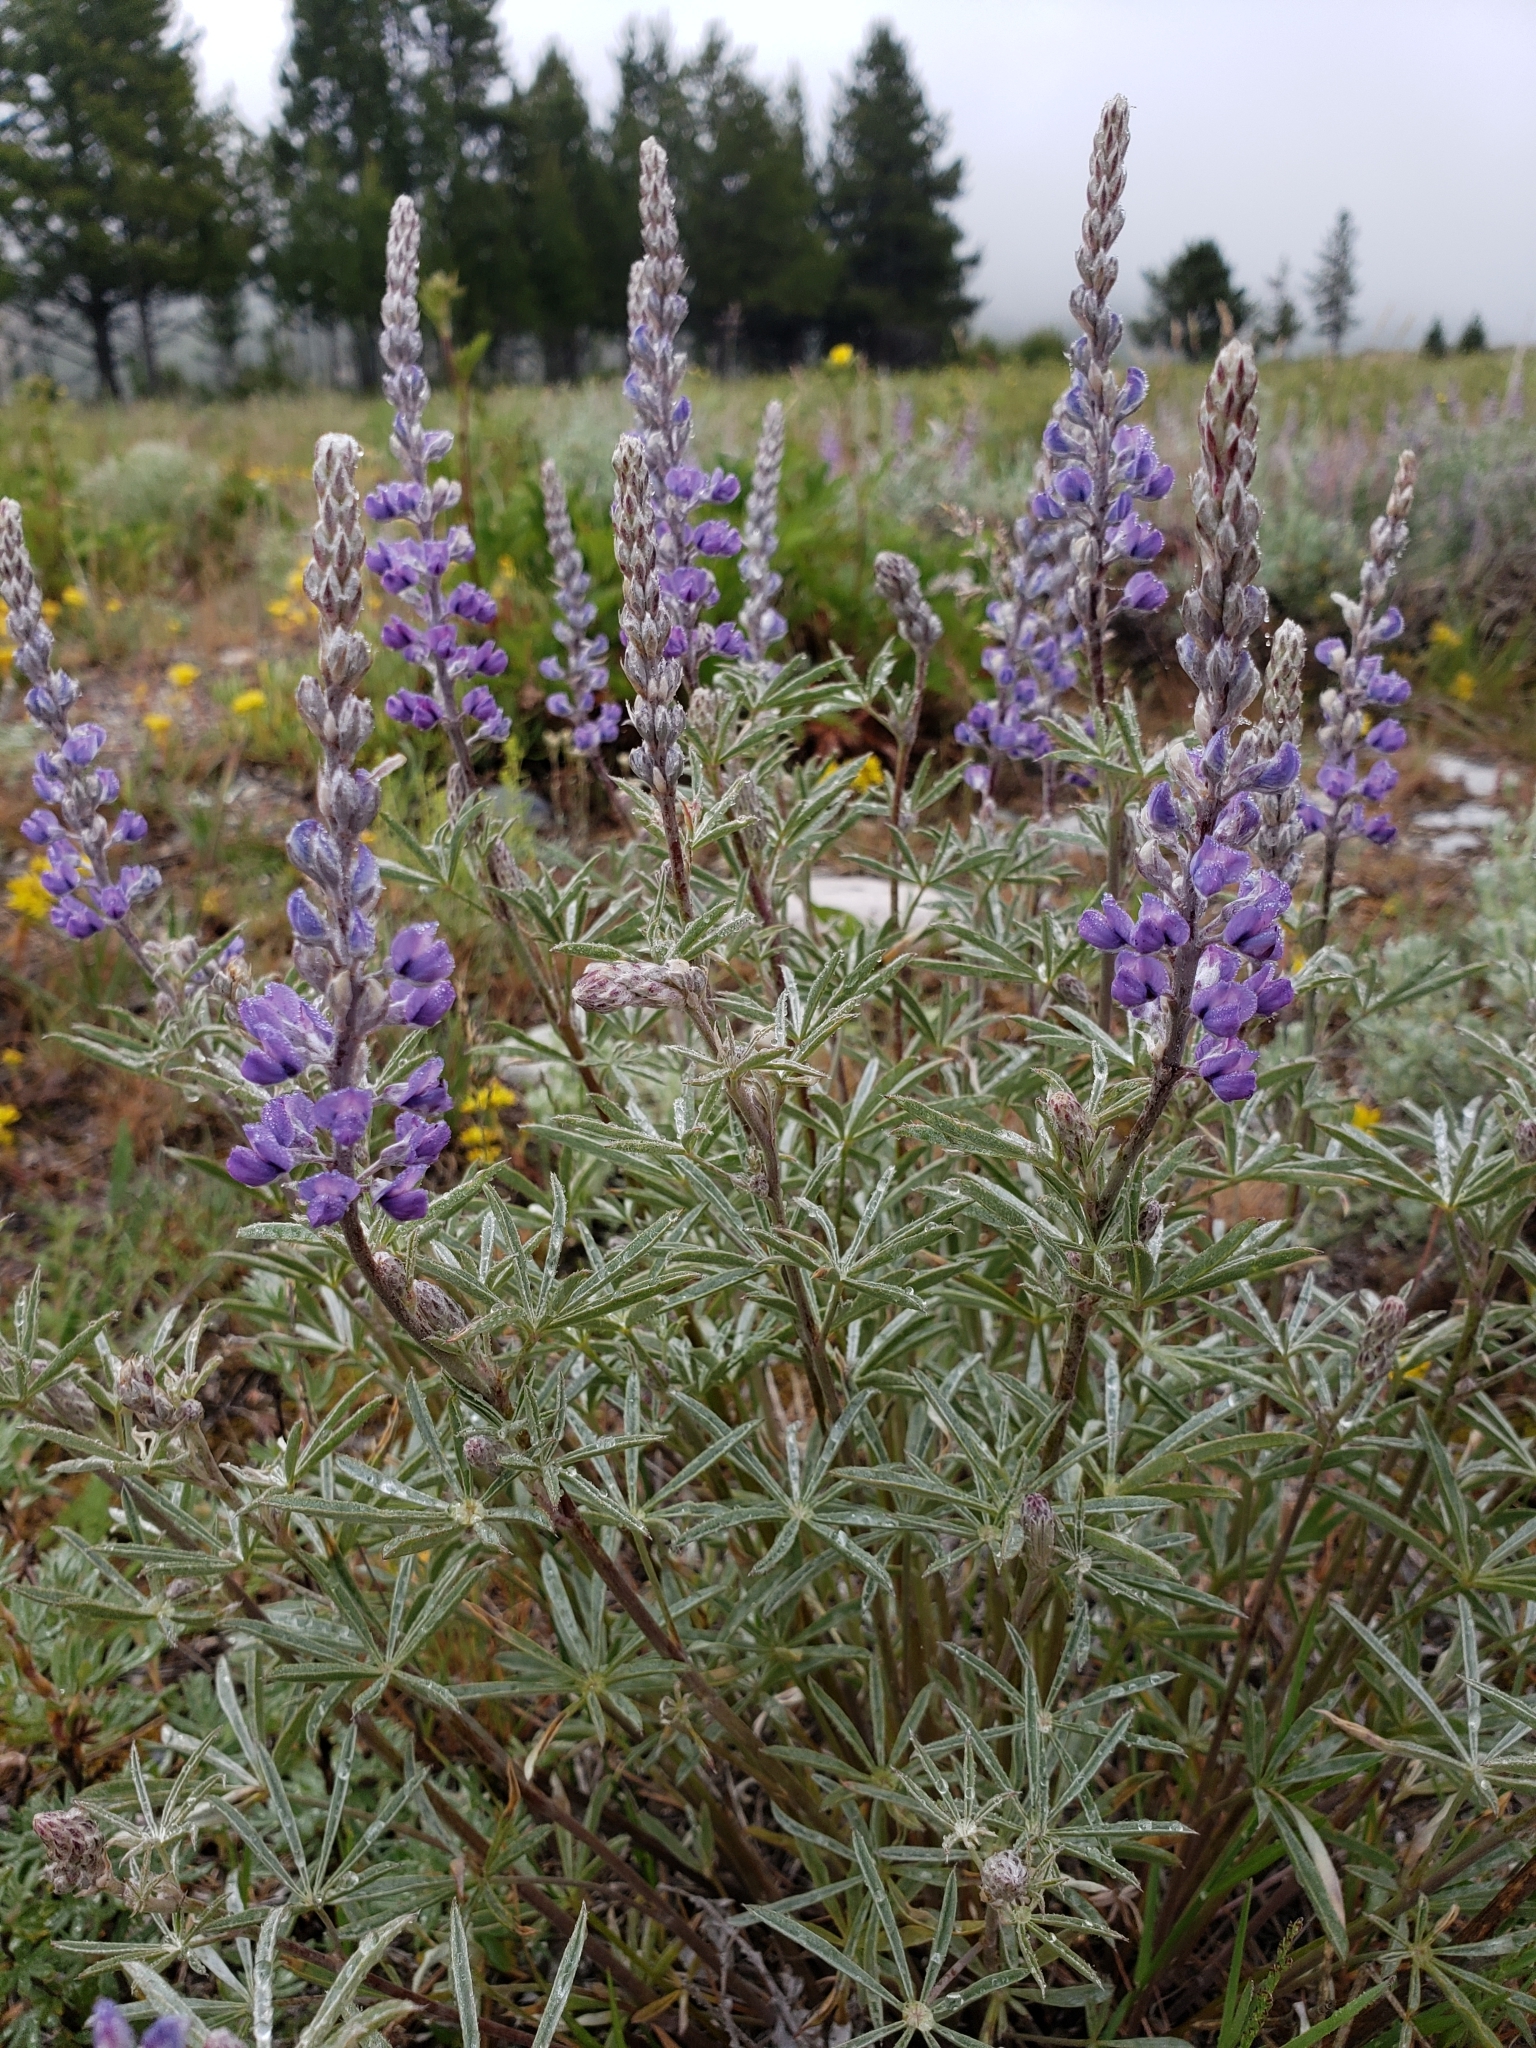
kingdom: Plantae
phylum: Tracheophyta
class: Magnoliopsida
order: Fabales
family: Fabaceae
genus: Lupinus
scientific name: Lupinus argenteus
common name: Silvery lupine
